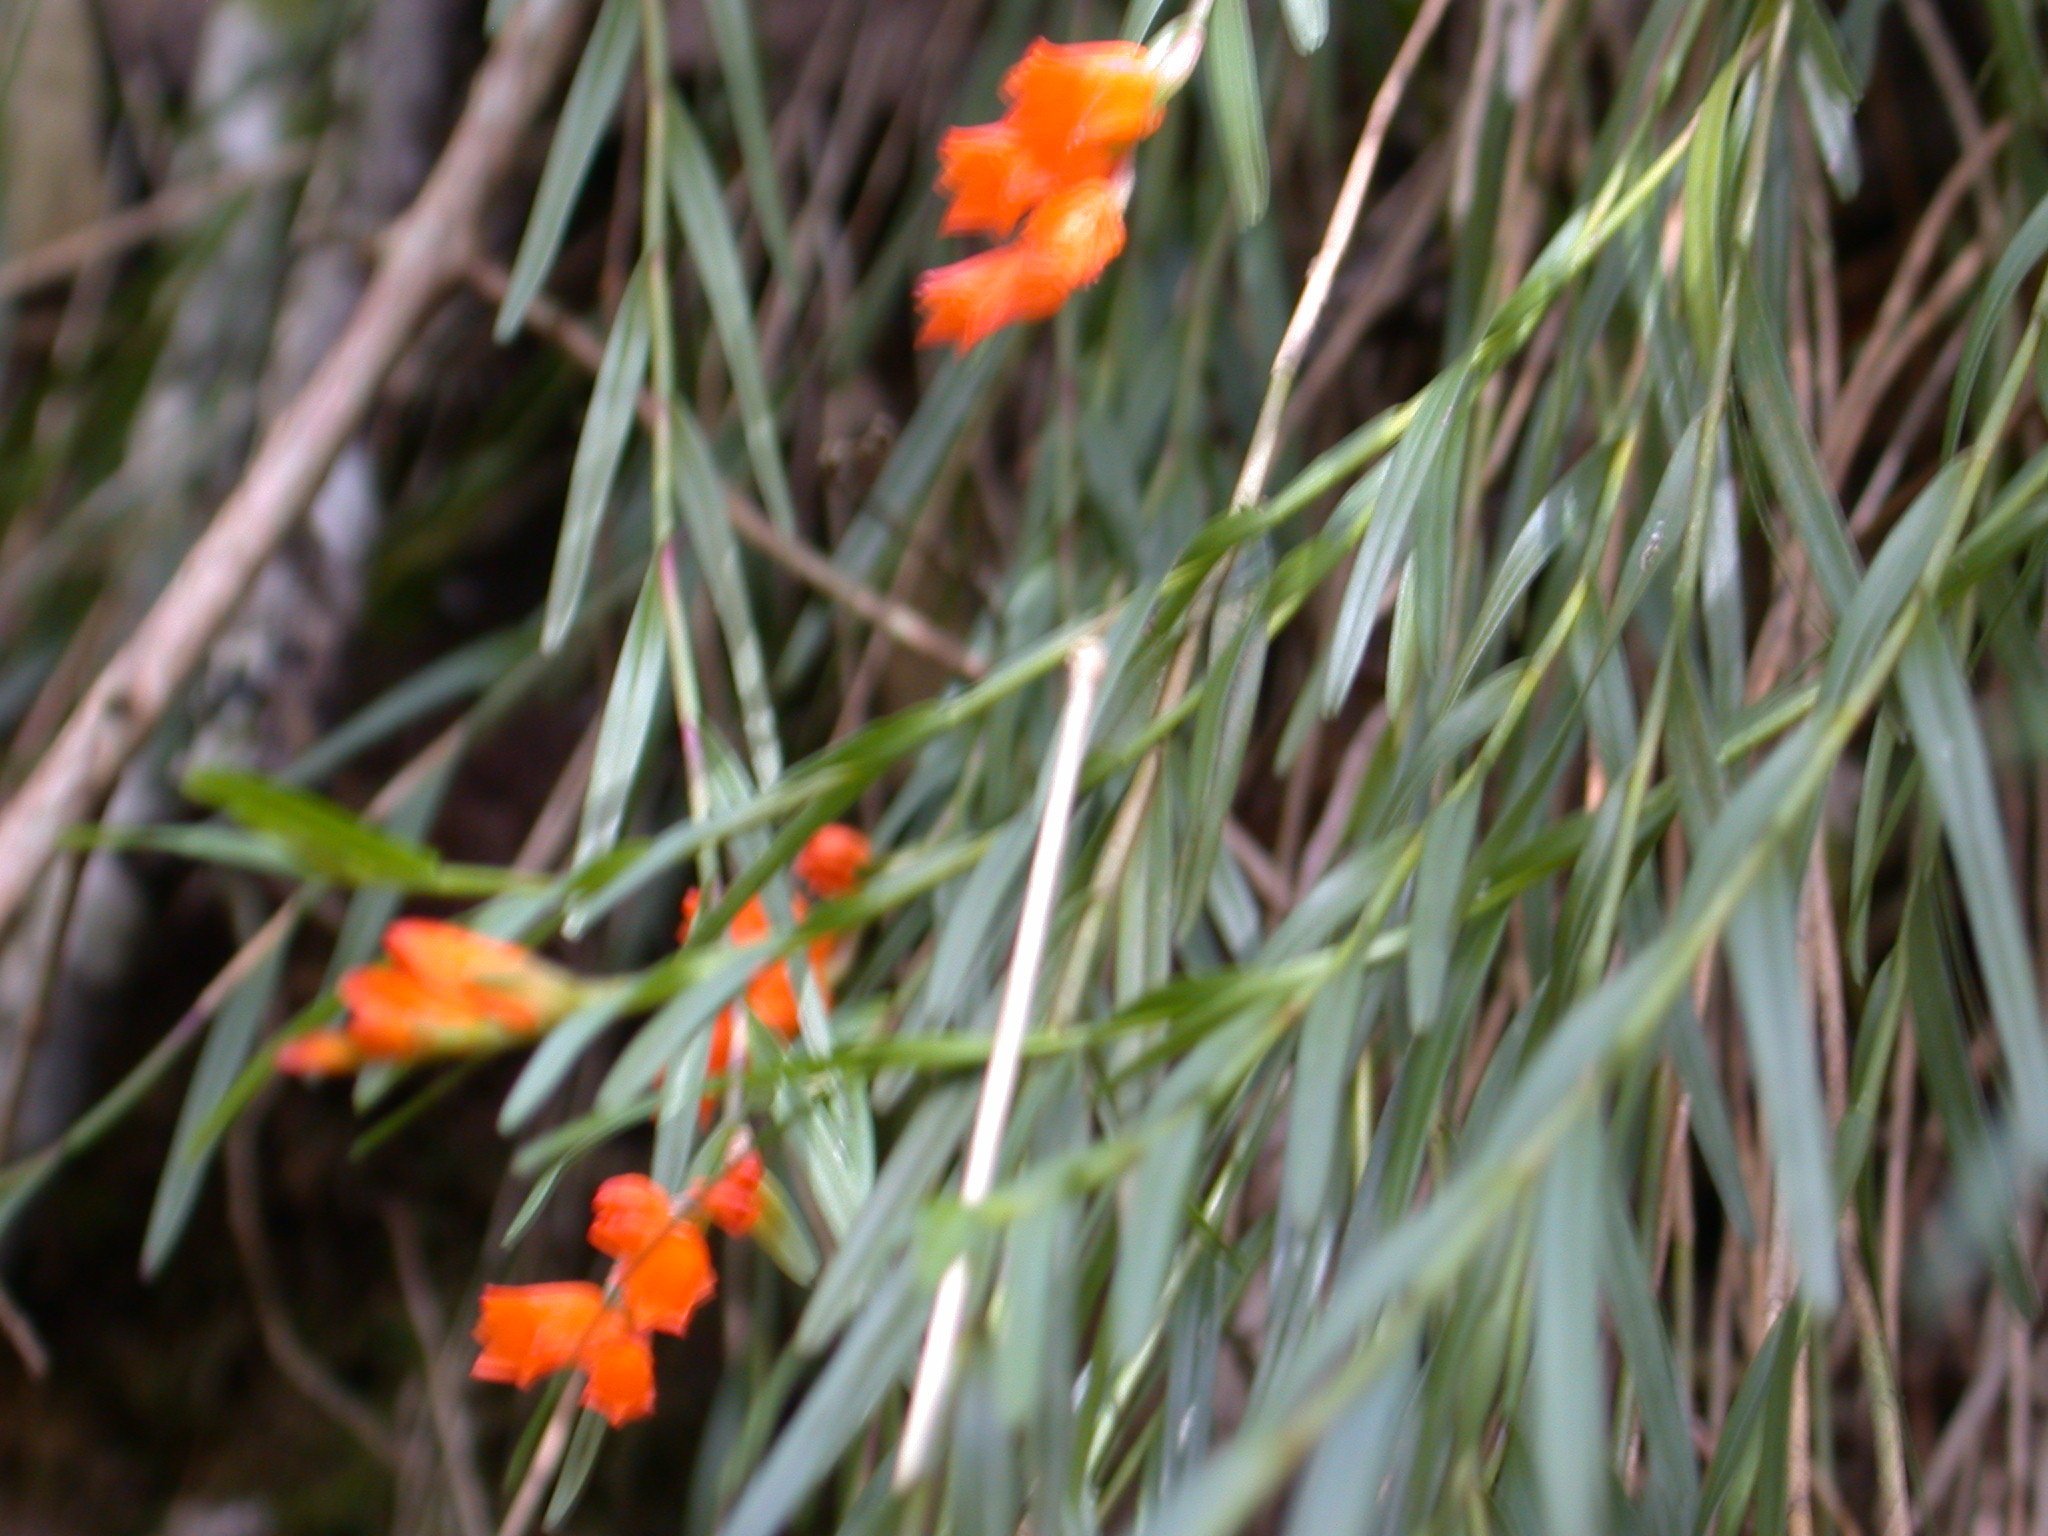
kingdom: Plantae
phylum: Tracheophyta
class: Liliopsida
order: Asparagales
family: Orchidaceae
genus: Isochilus
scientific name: Isochilus aurantiacus
